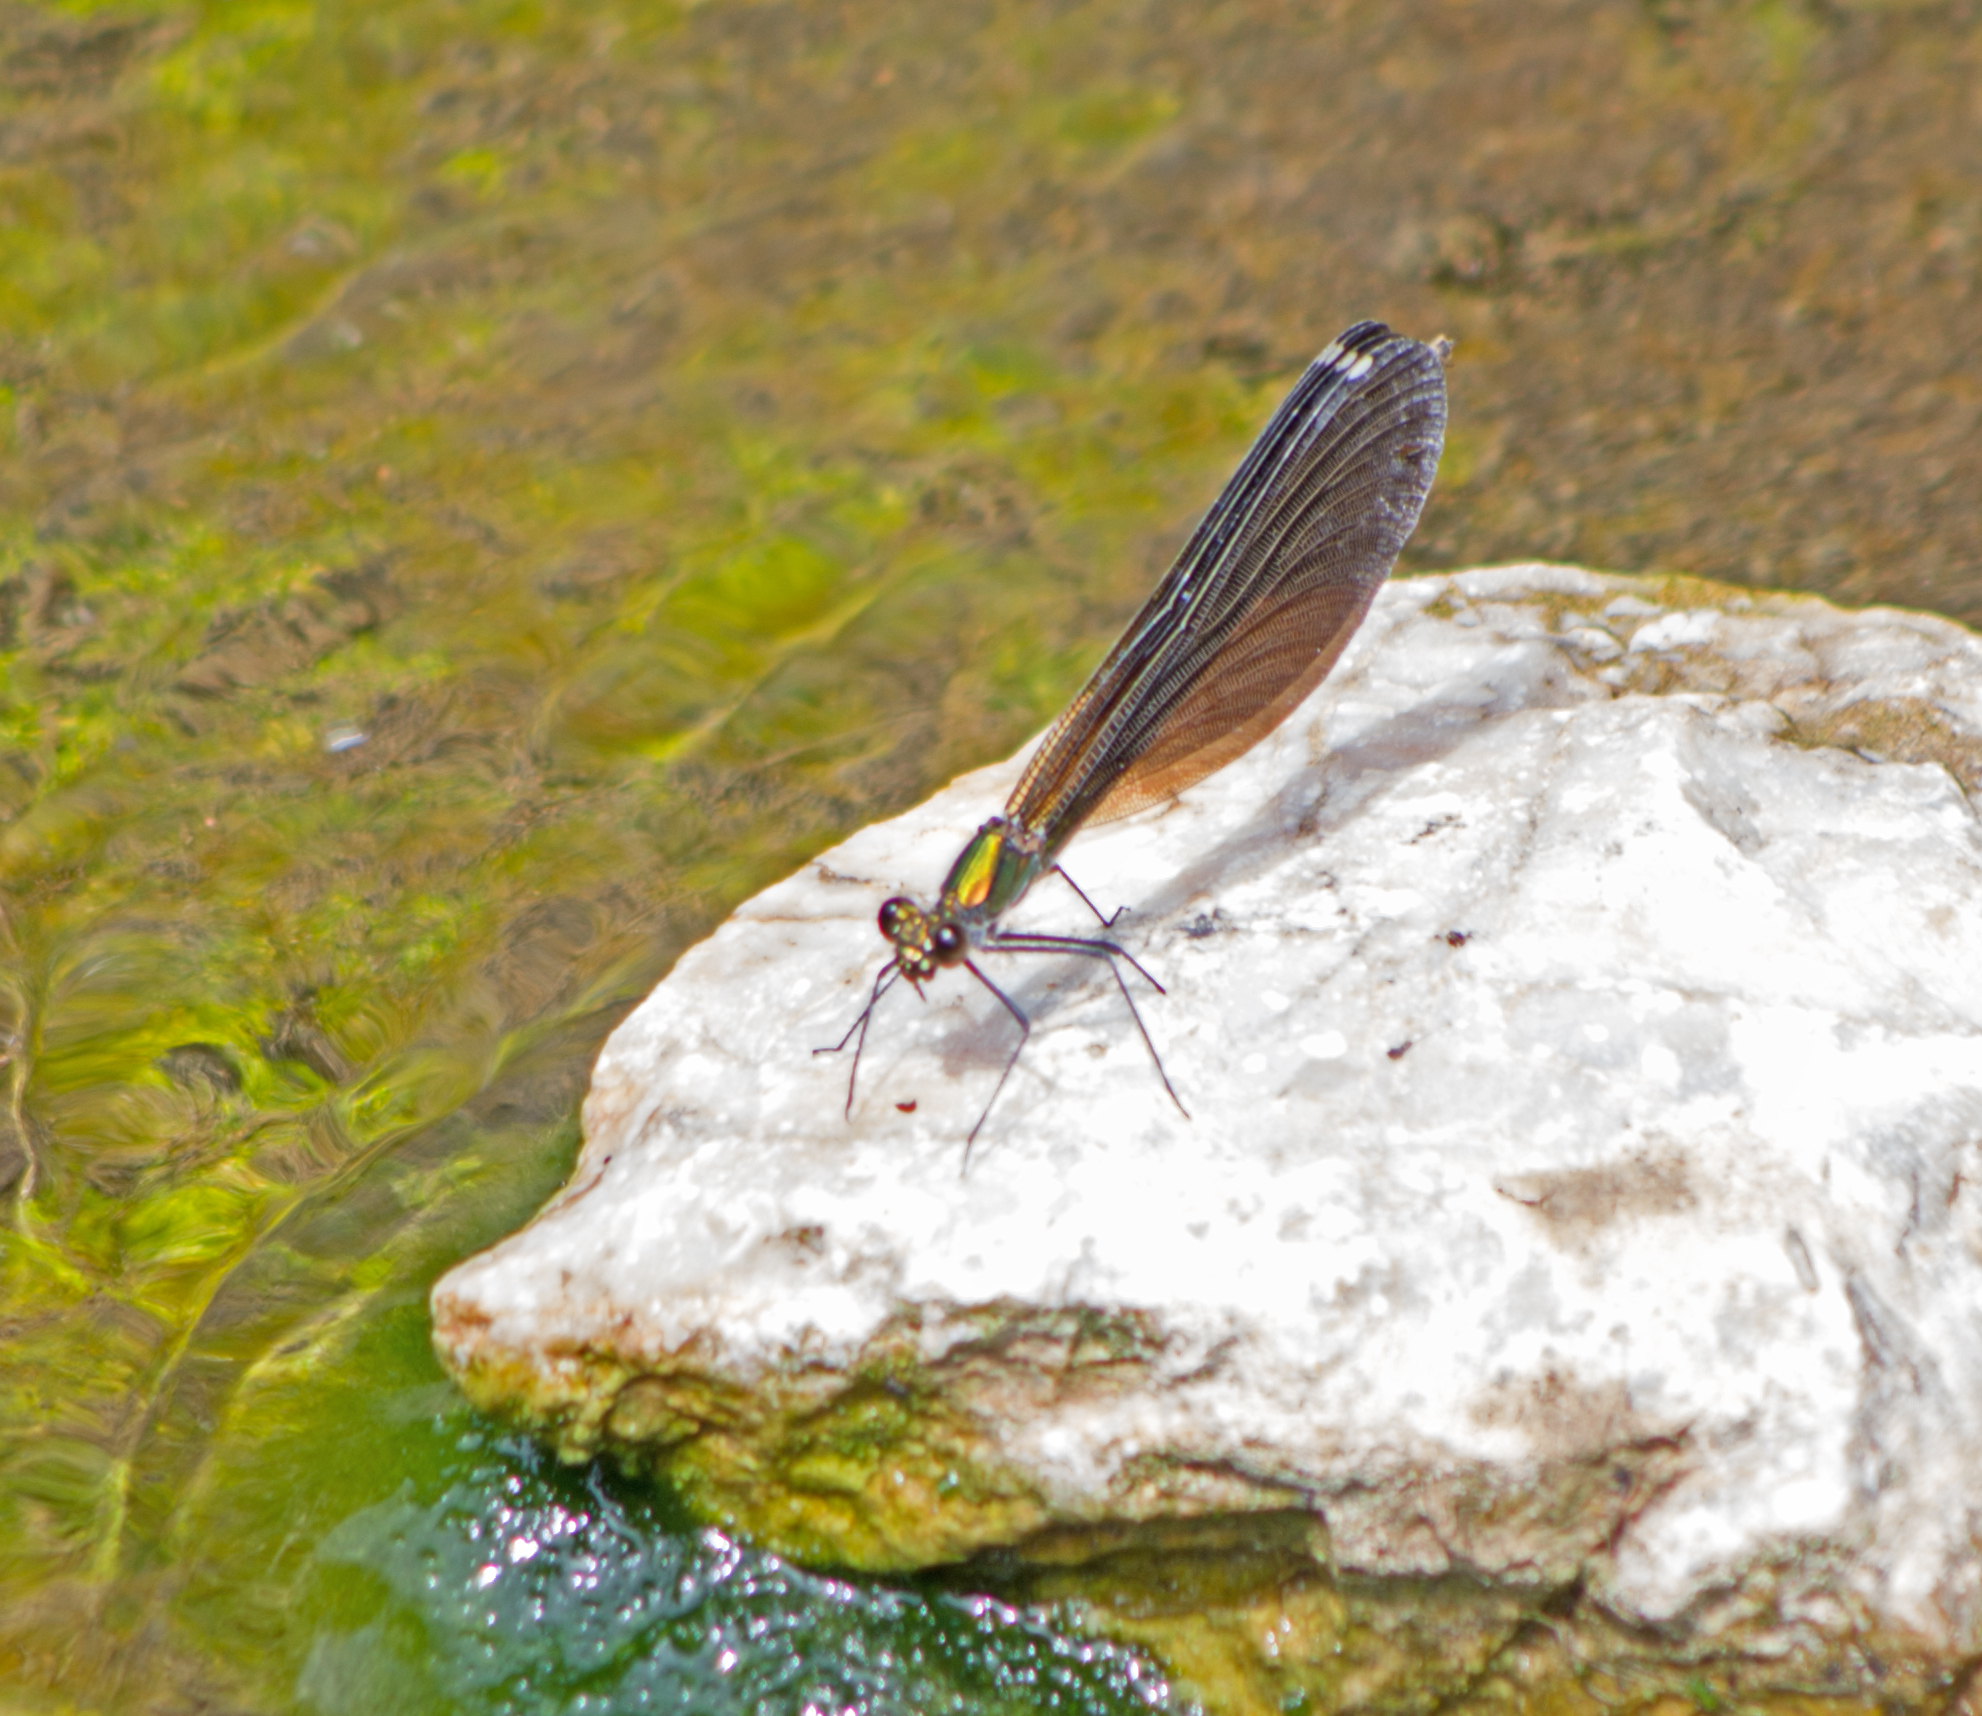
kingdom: Animalia
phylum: Arthropoda
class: Insecta
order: Odonata
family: Calopterygidae
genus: Calopteryx
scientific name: Calopteryx virgo
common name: Beautiful demoiselle
